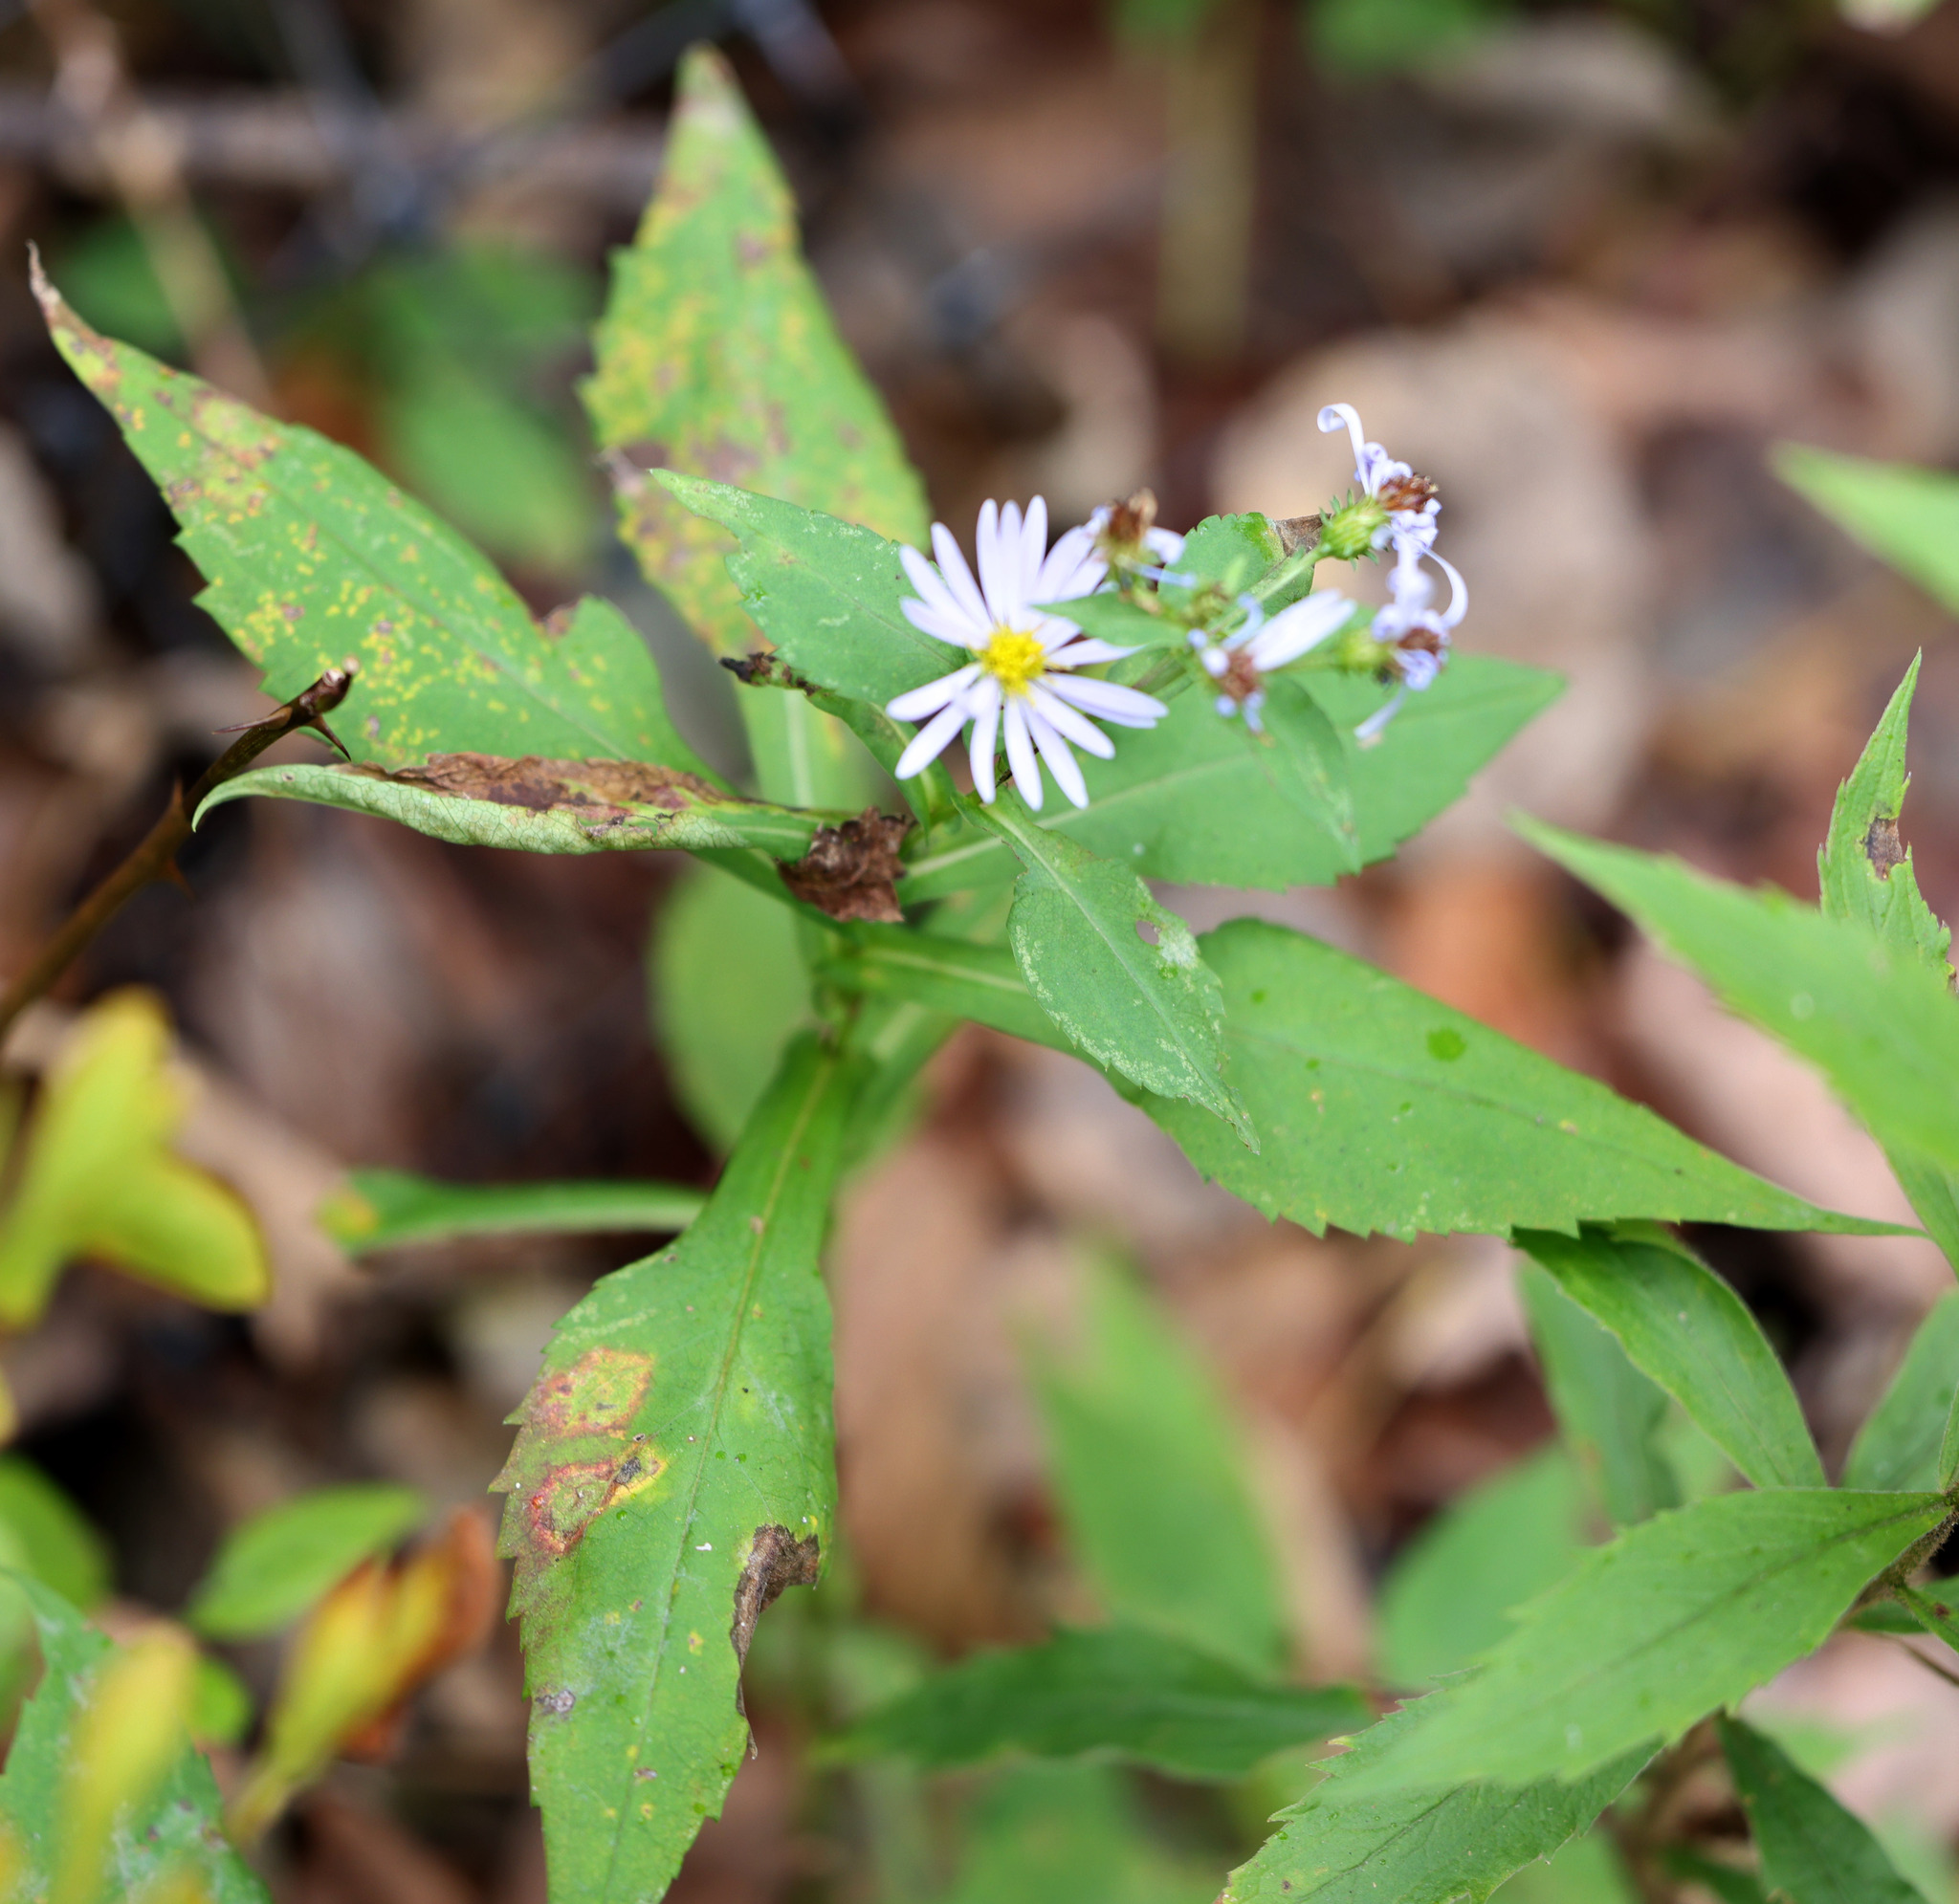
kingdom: Plantae
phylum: Tracheophyta
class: Magnoliopsida
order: Asterales
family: Asteraceae
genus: Symphyotrichum
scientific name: Symphyotrichum prenanthoides
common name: Crooked-stem aster
